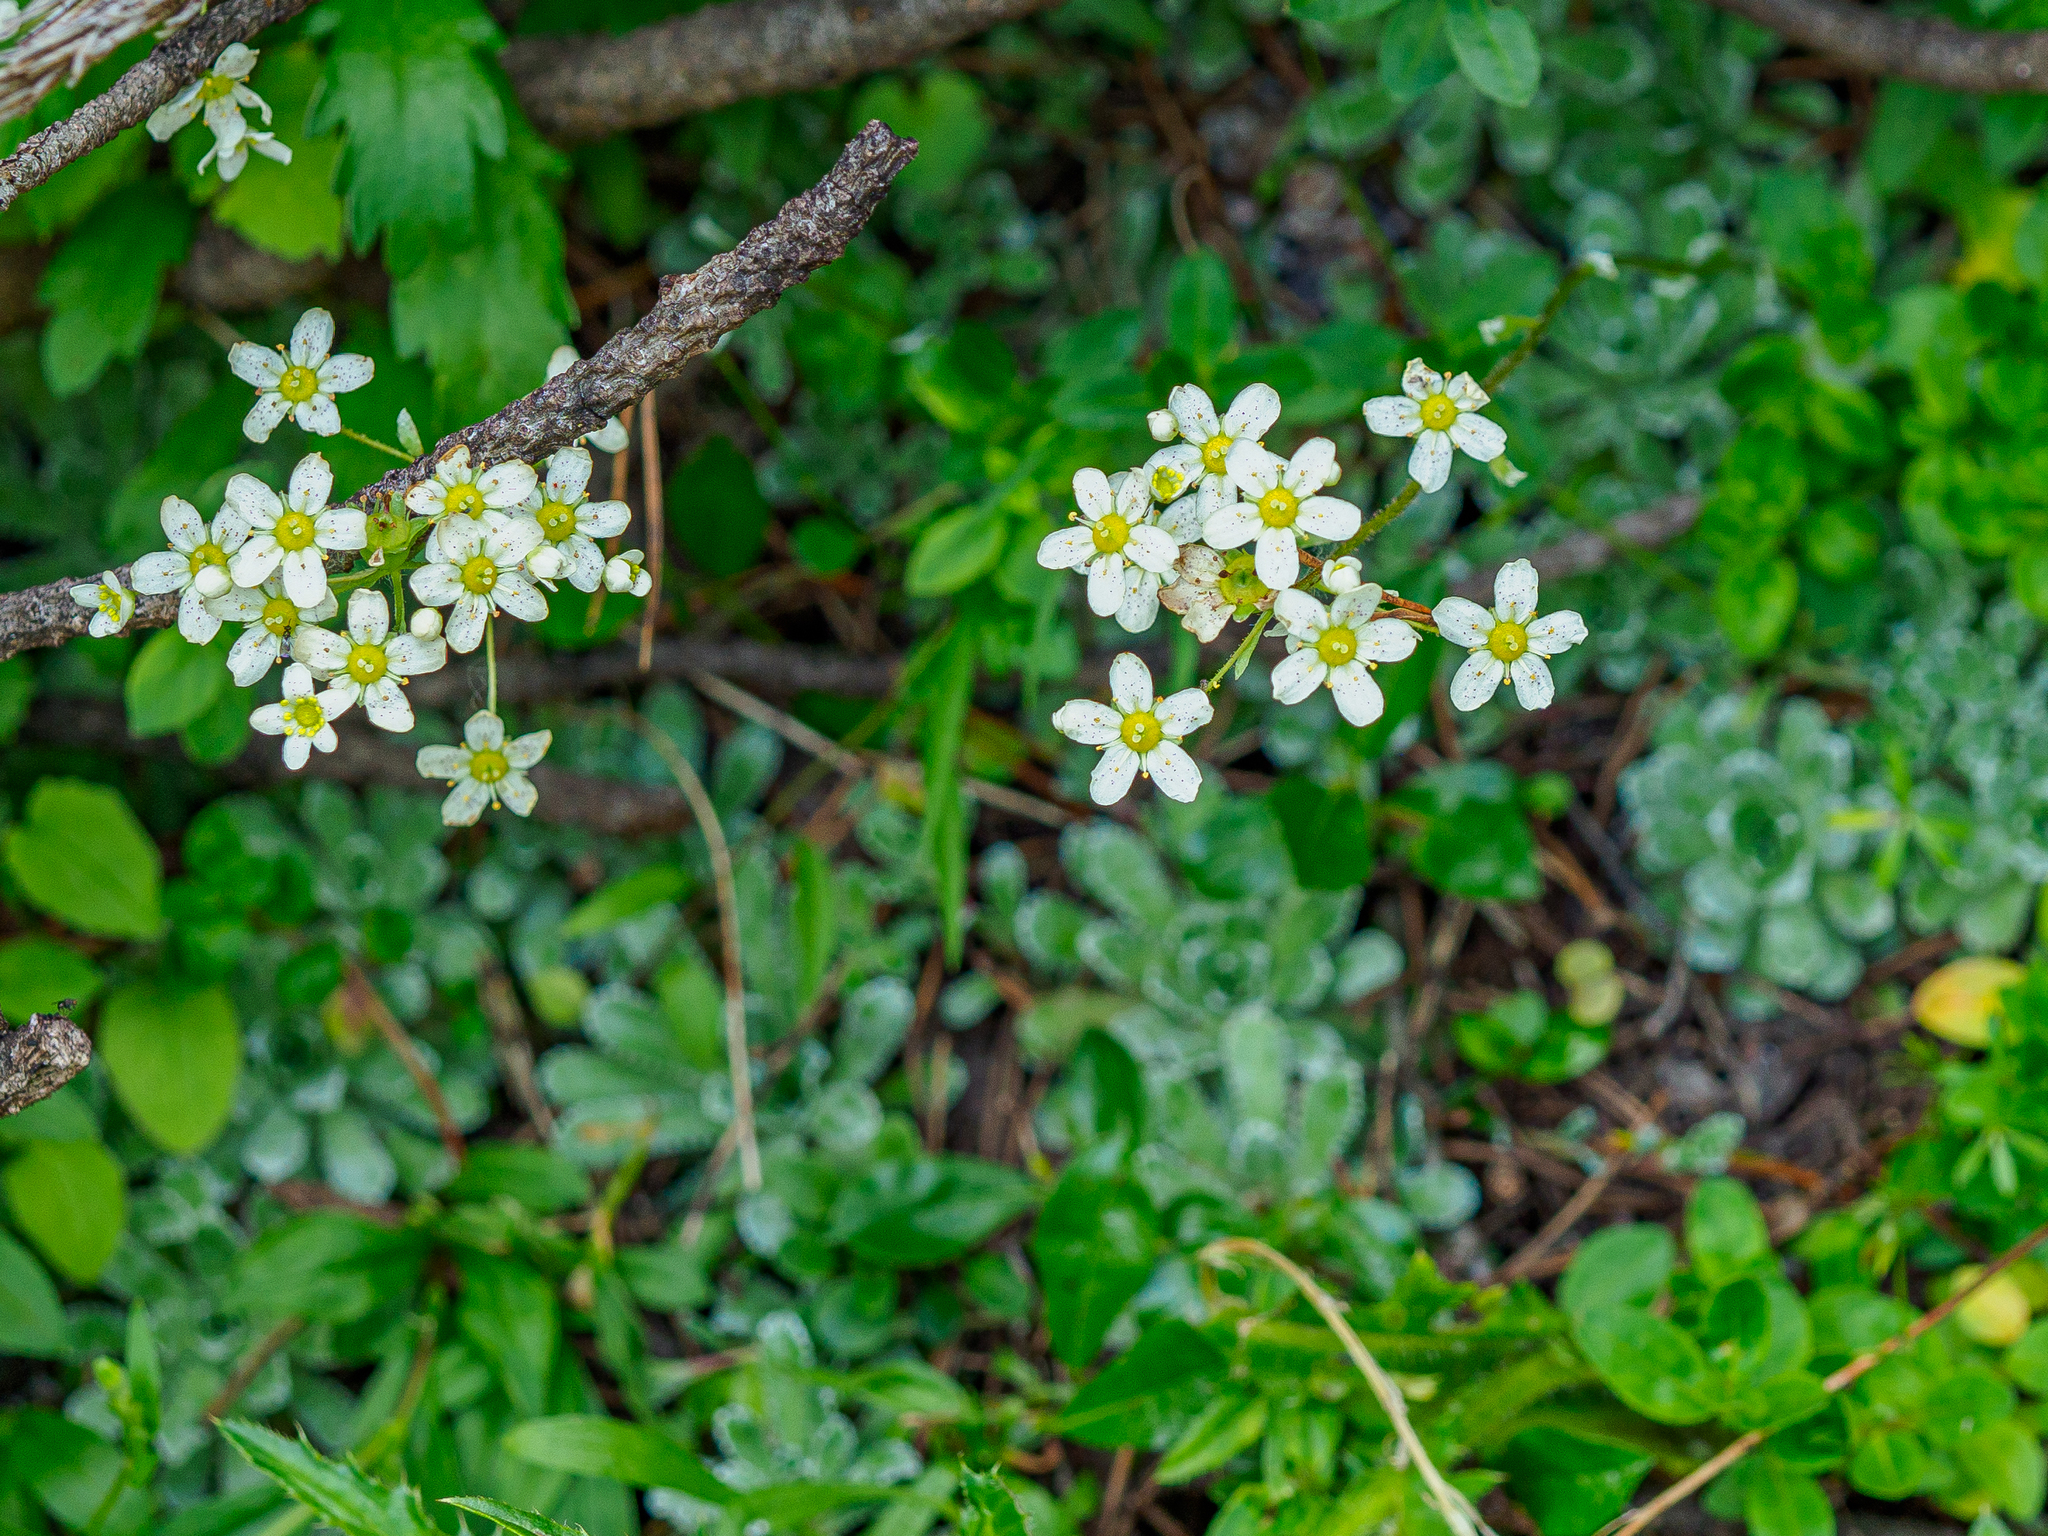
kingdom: Plantae
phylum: Tracheophyta
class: Magnoliopsida
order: Saxifragales
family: Saxifragaceae
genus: Saxifraga
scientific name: Saxifraga paniculata
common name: Livelong saxifrage
